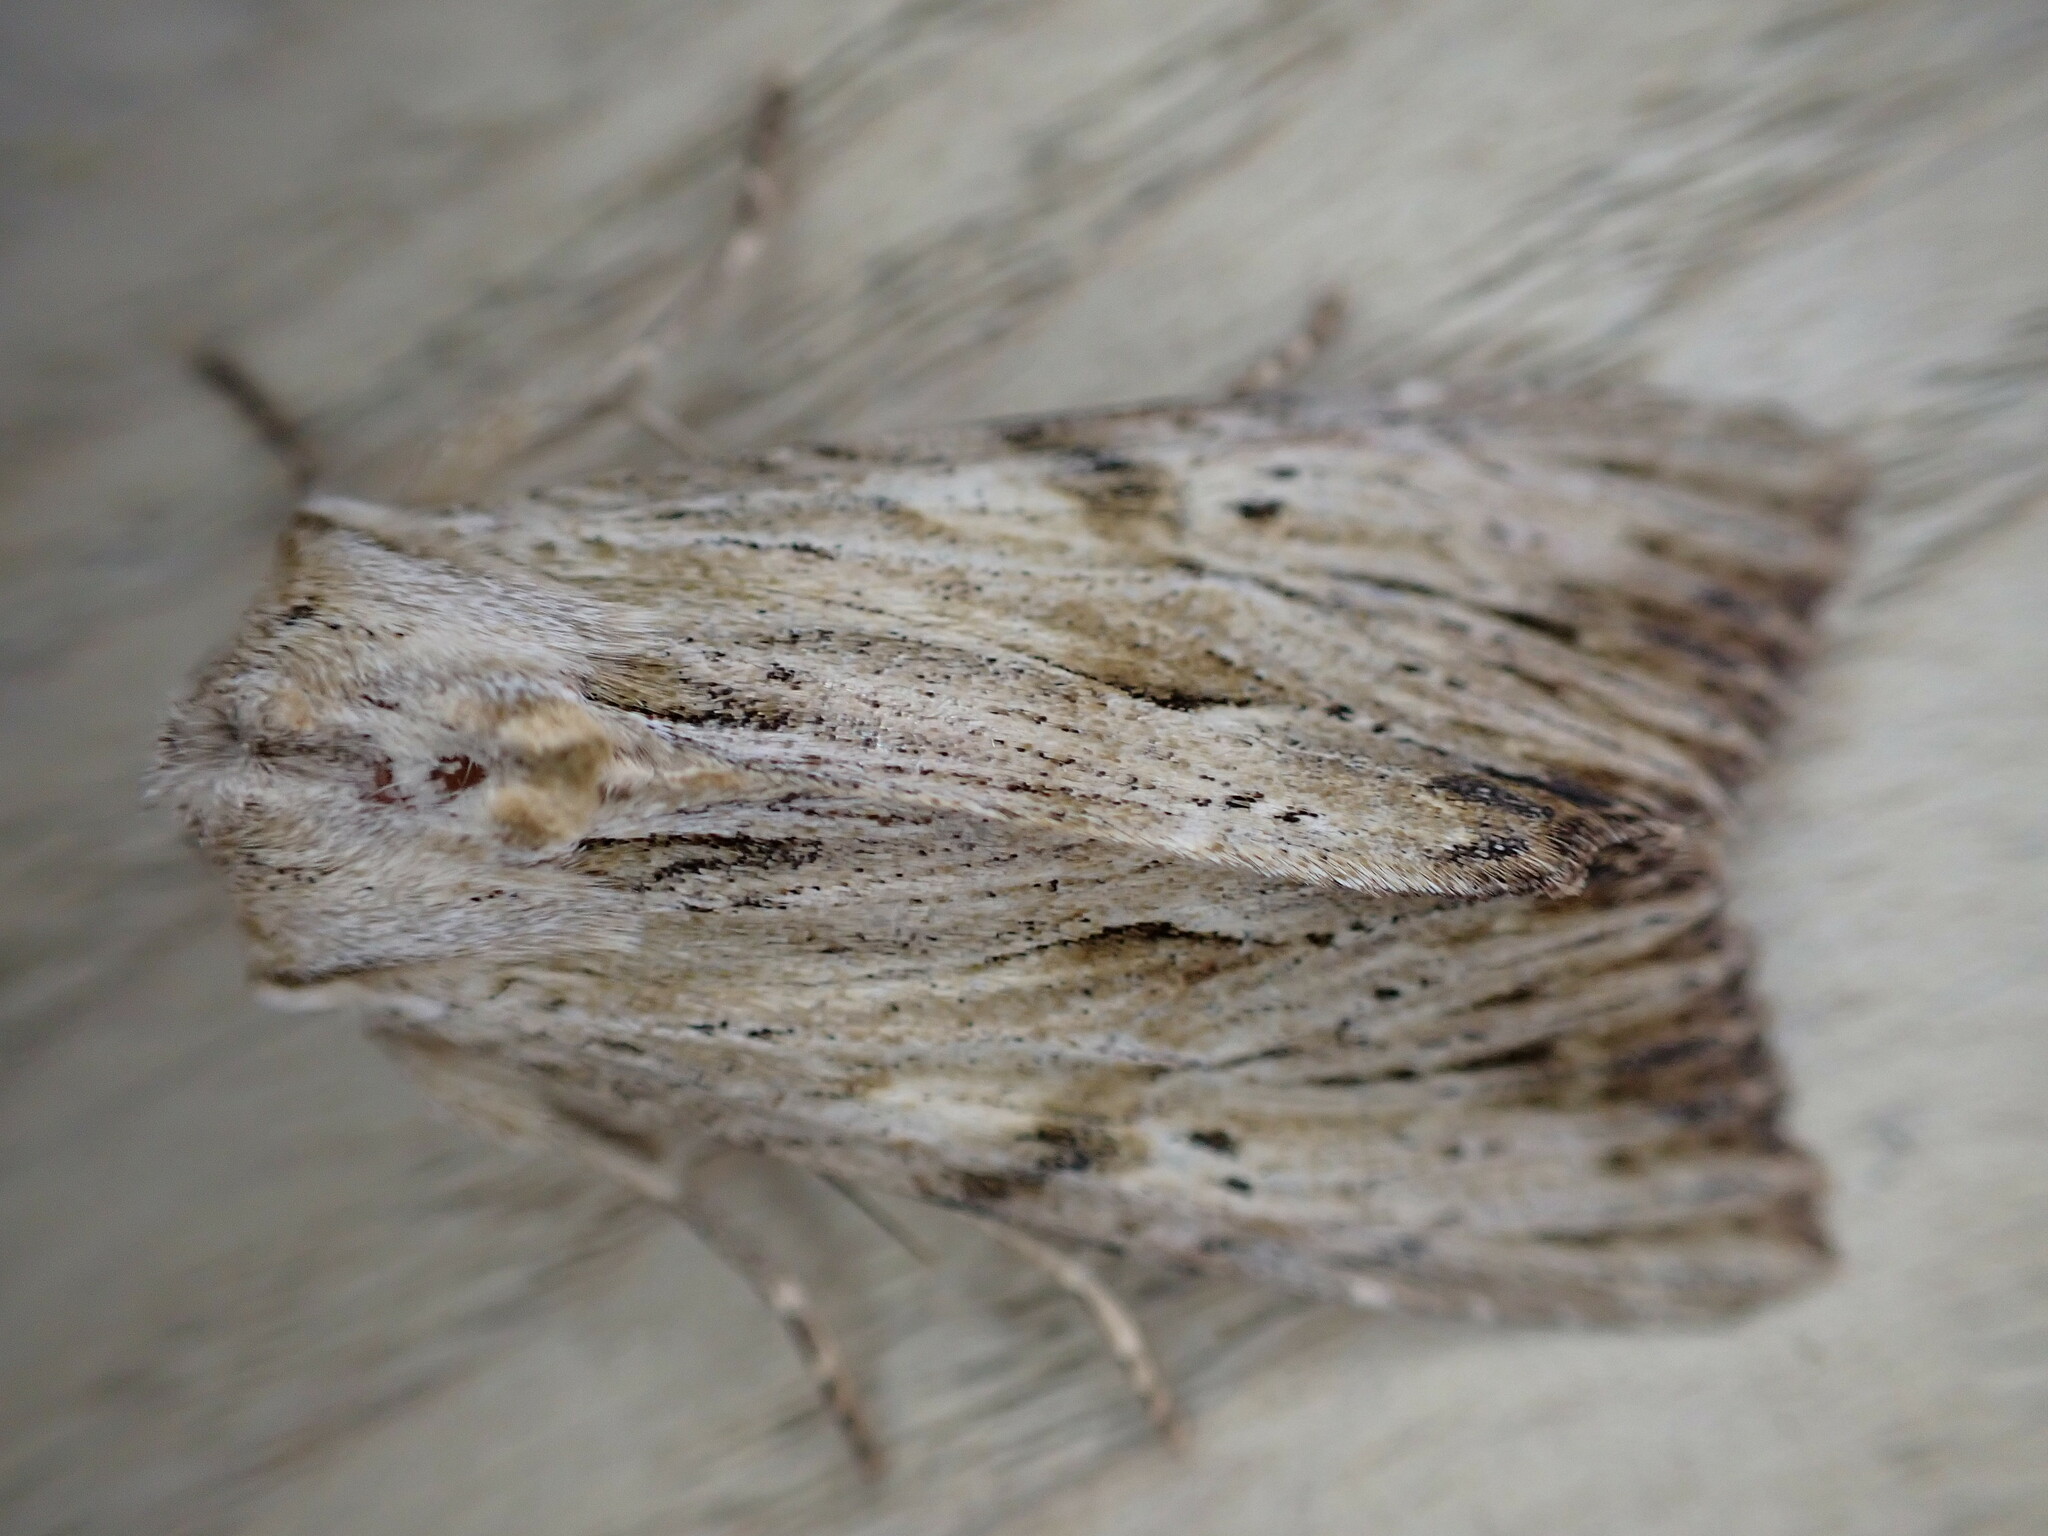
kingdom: Animalia
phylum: Arthropoda
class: Insecta
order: Lepidoptera
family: Noctuidae
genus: Apamea
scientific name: Apamea lithoxylaea
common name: Light arches
